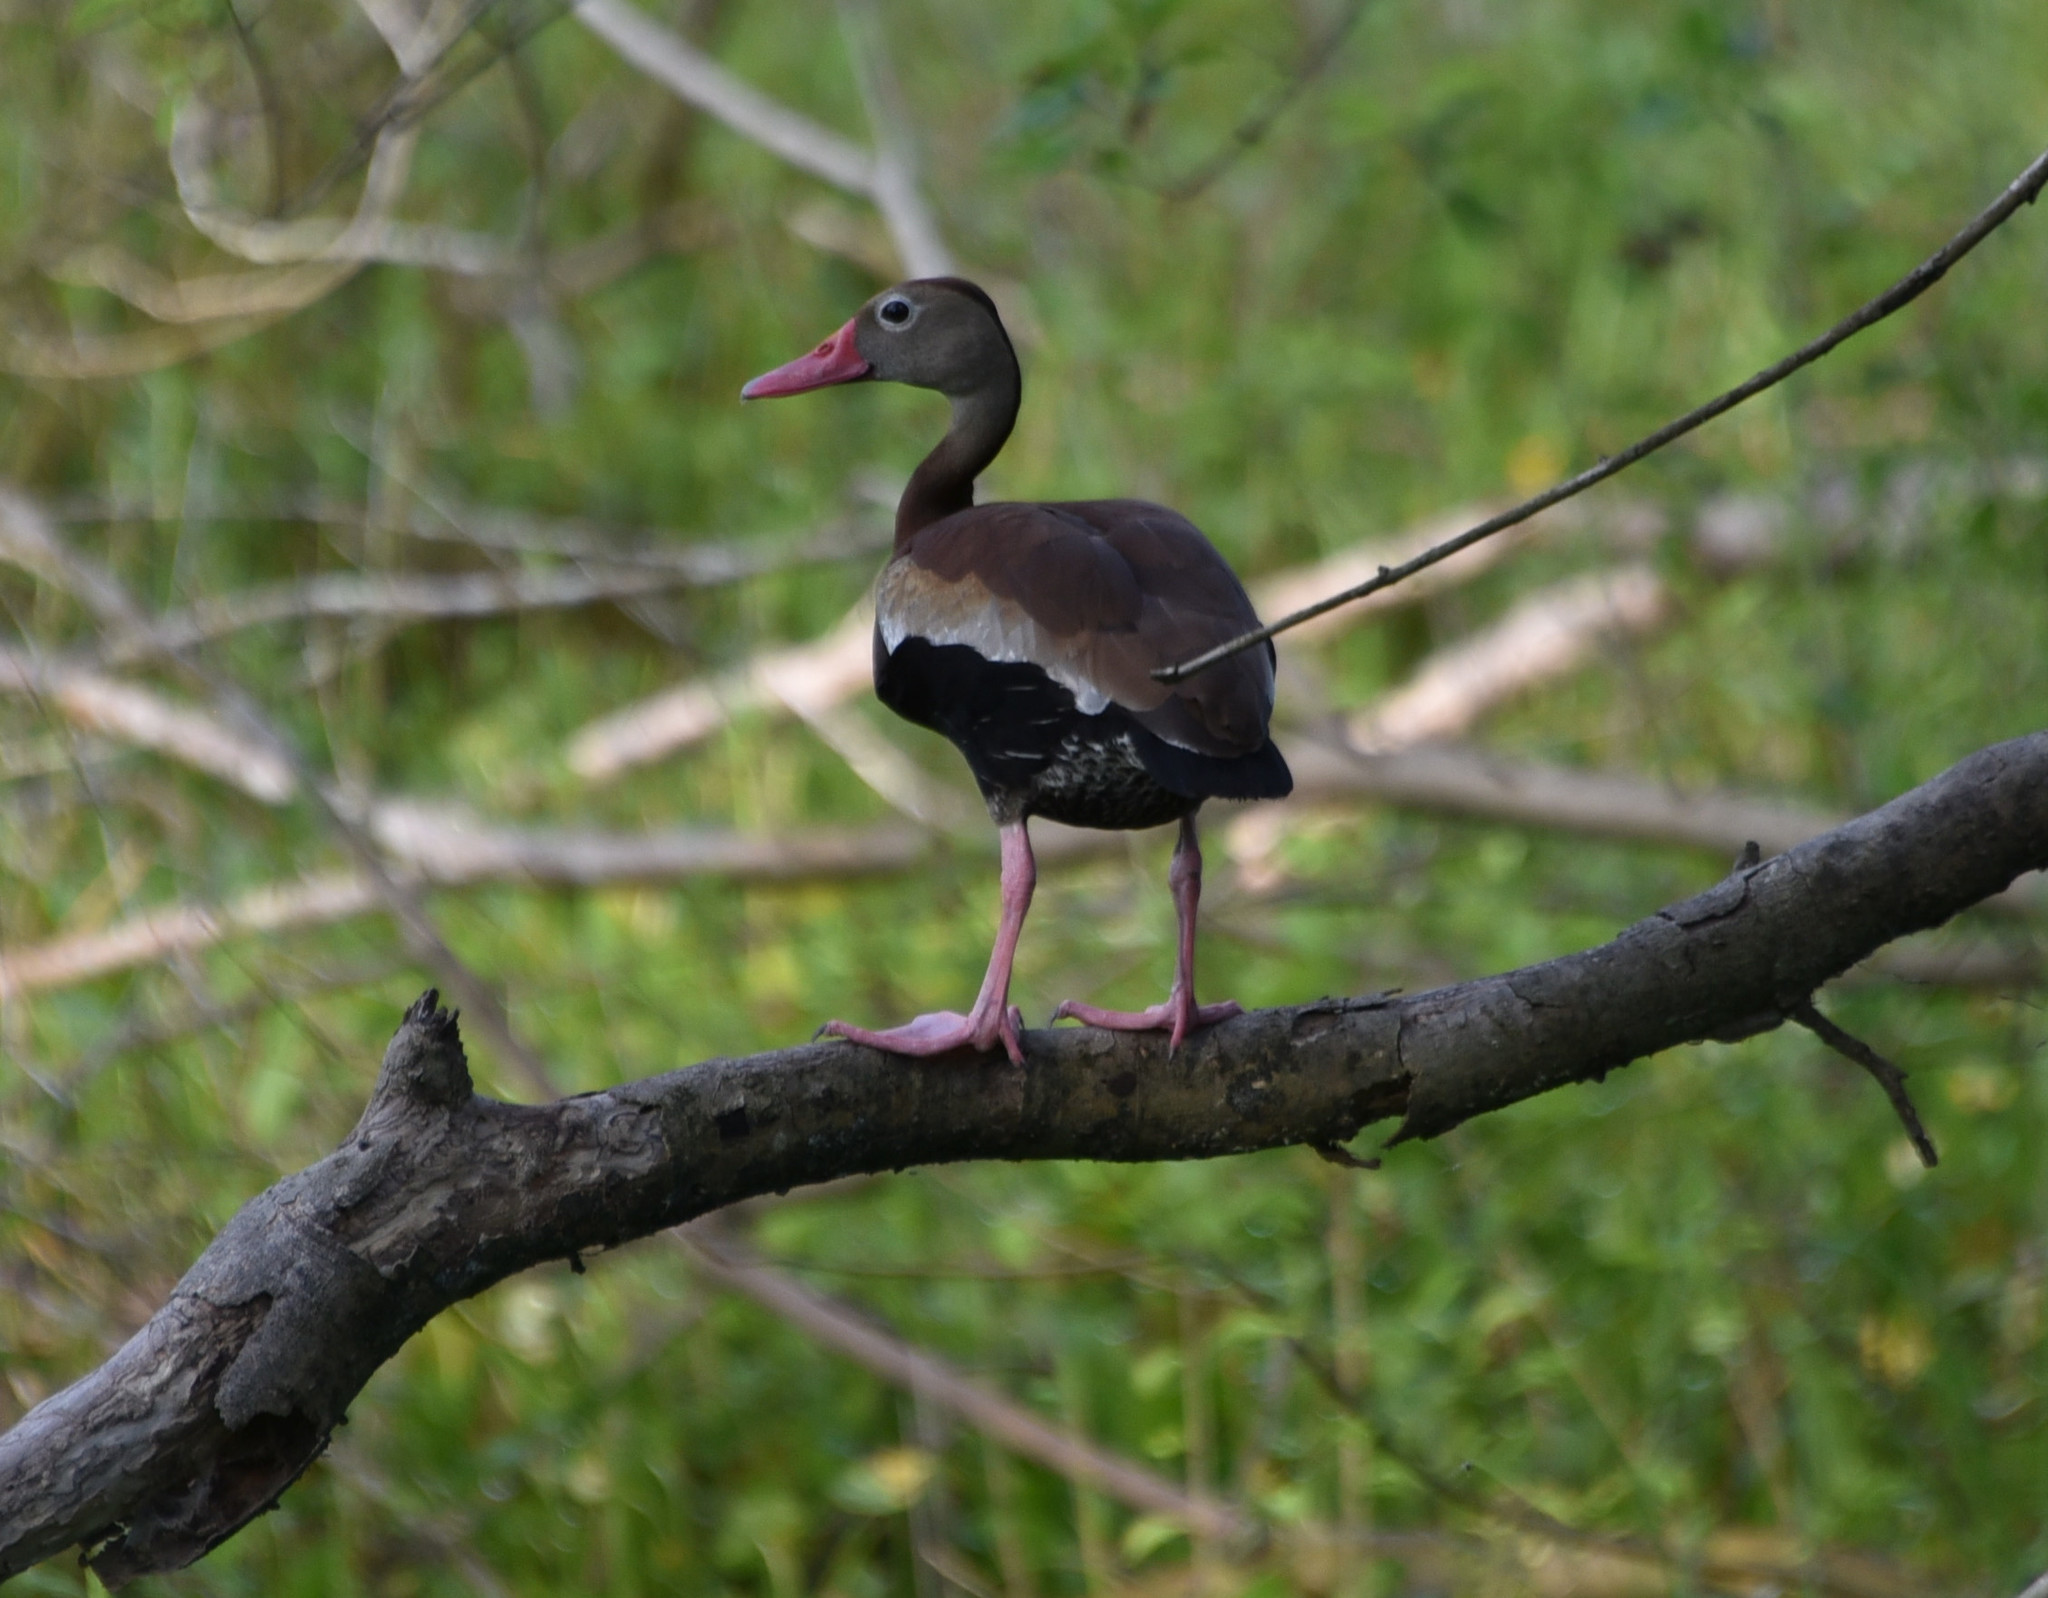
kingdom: Animalia
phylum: Chordata
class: Aves
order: Anseriformes
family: Anatidae
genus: Dendrocygna
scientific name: Dendrocygna autumnalis
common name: Black-bellied whistling duck
